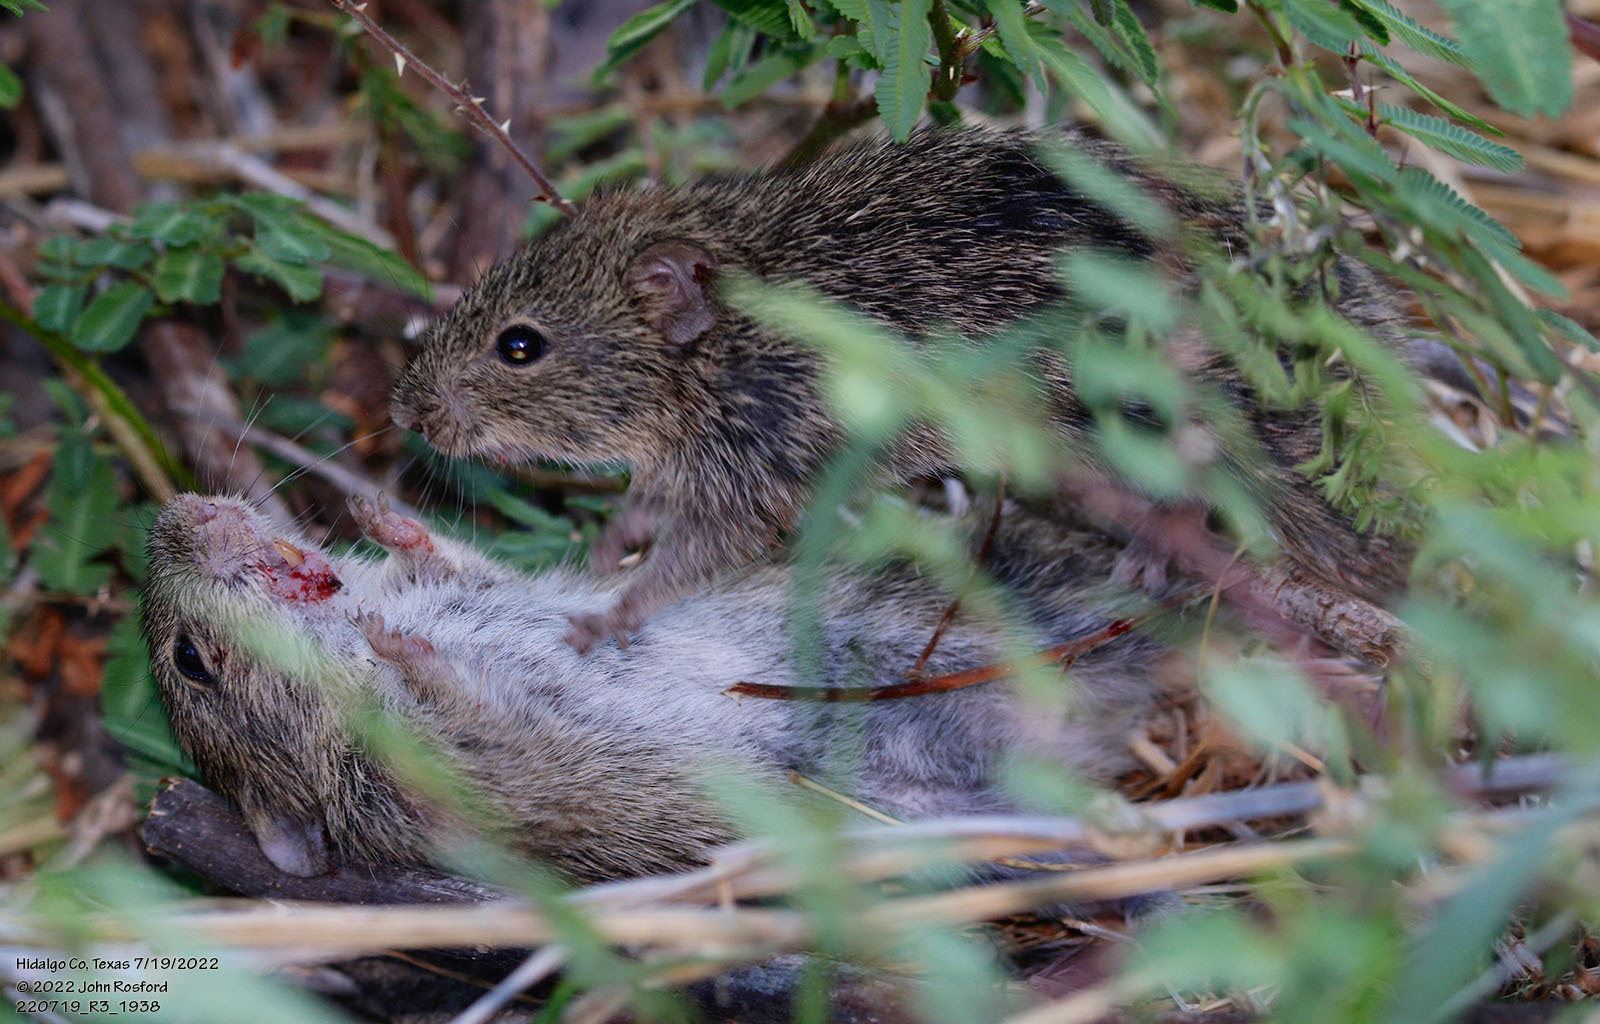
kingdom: Animalia
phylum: Chordata
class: Mammalia
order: Rodentia
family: Cricetidae
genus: Sigmodon
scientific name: Sigmodon hispidus
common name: Hispid cotton rat
